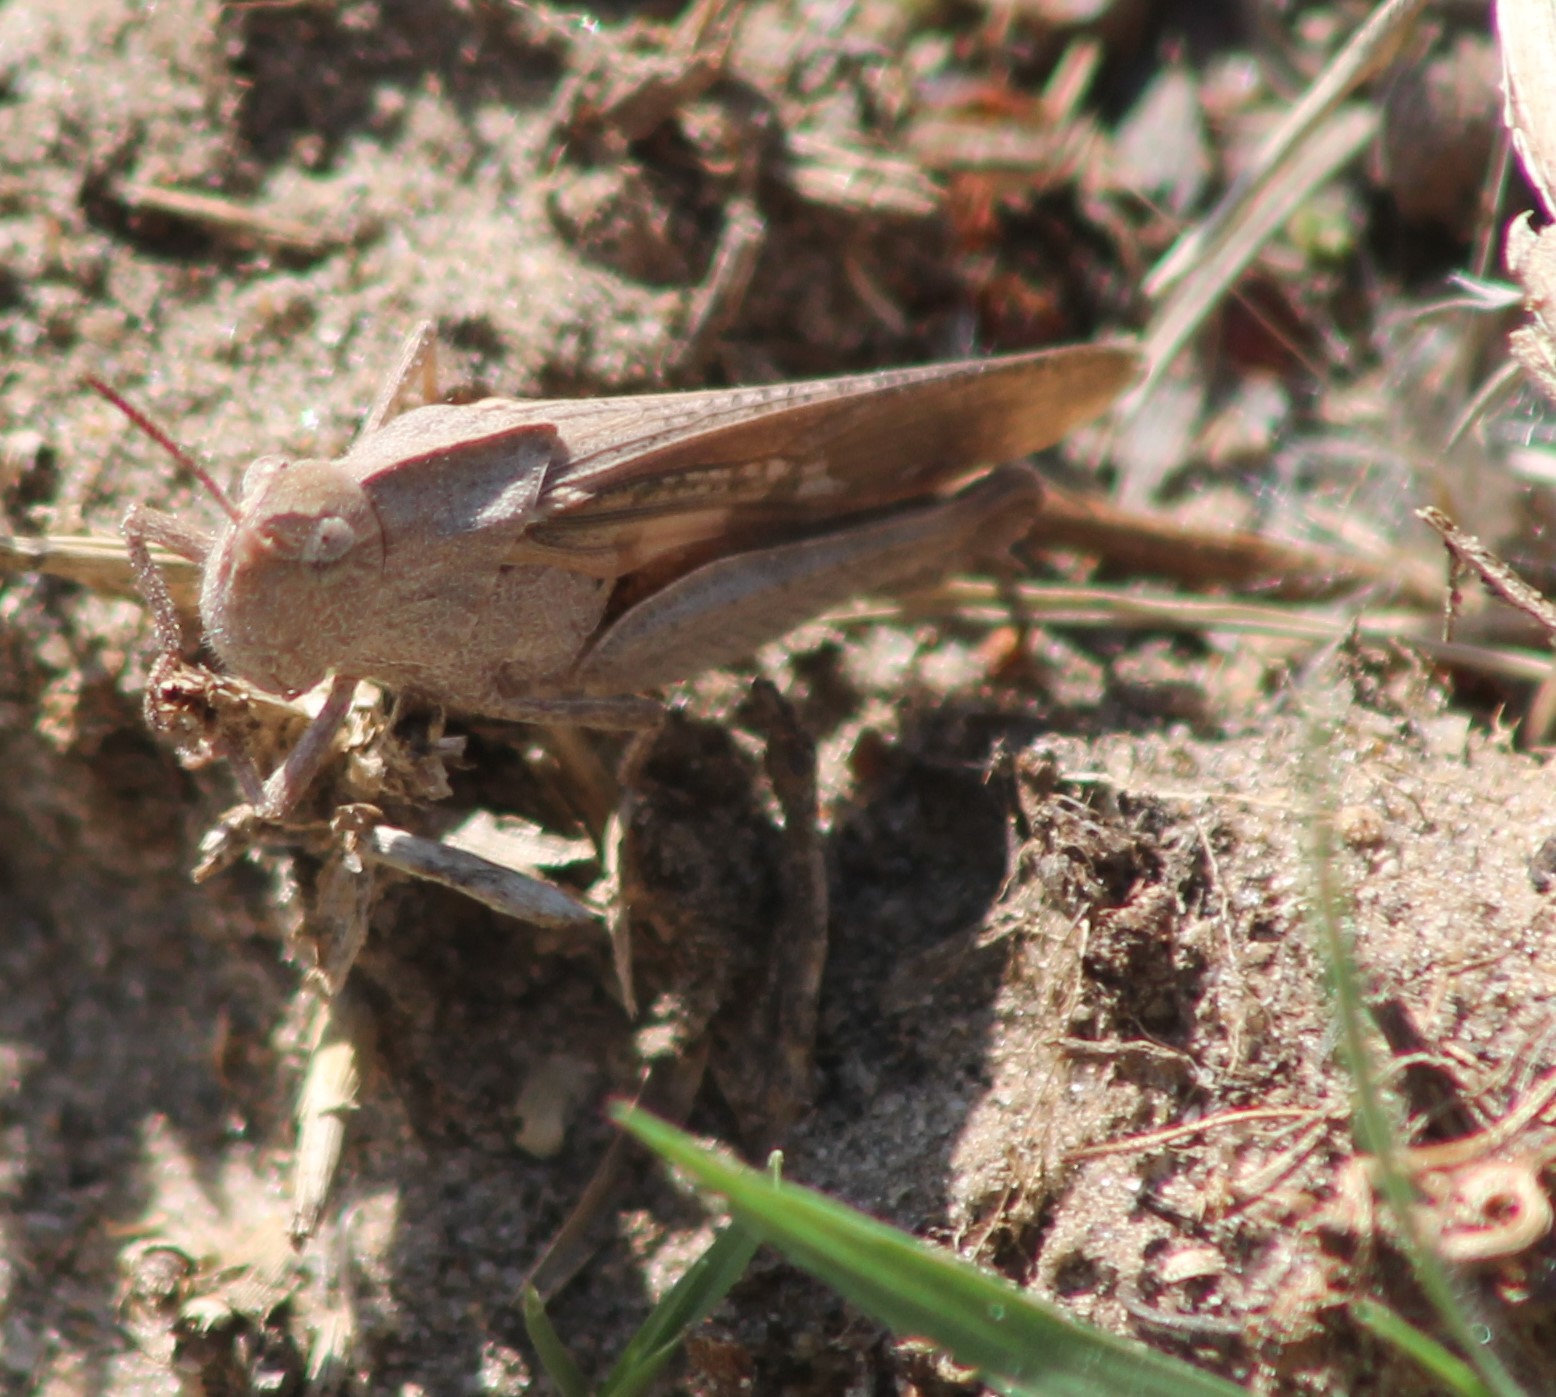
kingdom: Animalia
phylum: Arthropoda
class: Insecta
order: Orthoptera
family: Acrididae
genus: Chortophaga
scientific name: Chortophaga viridifasciata
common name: Green-striped grasshopper
